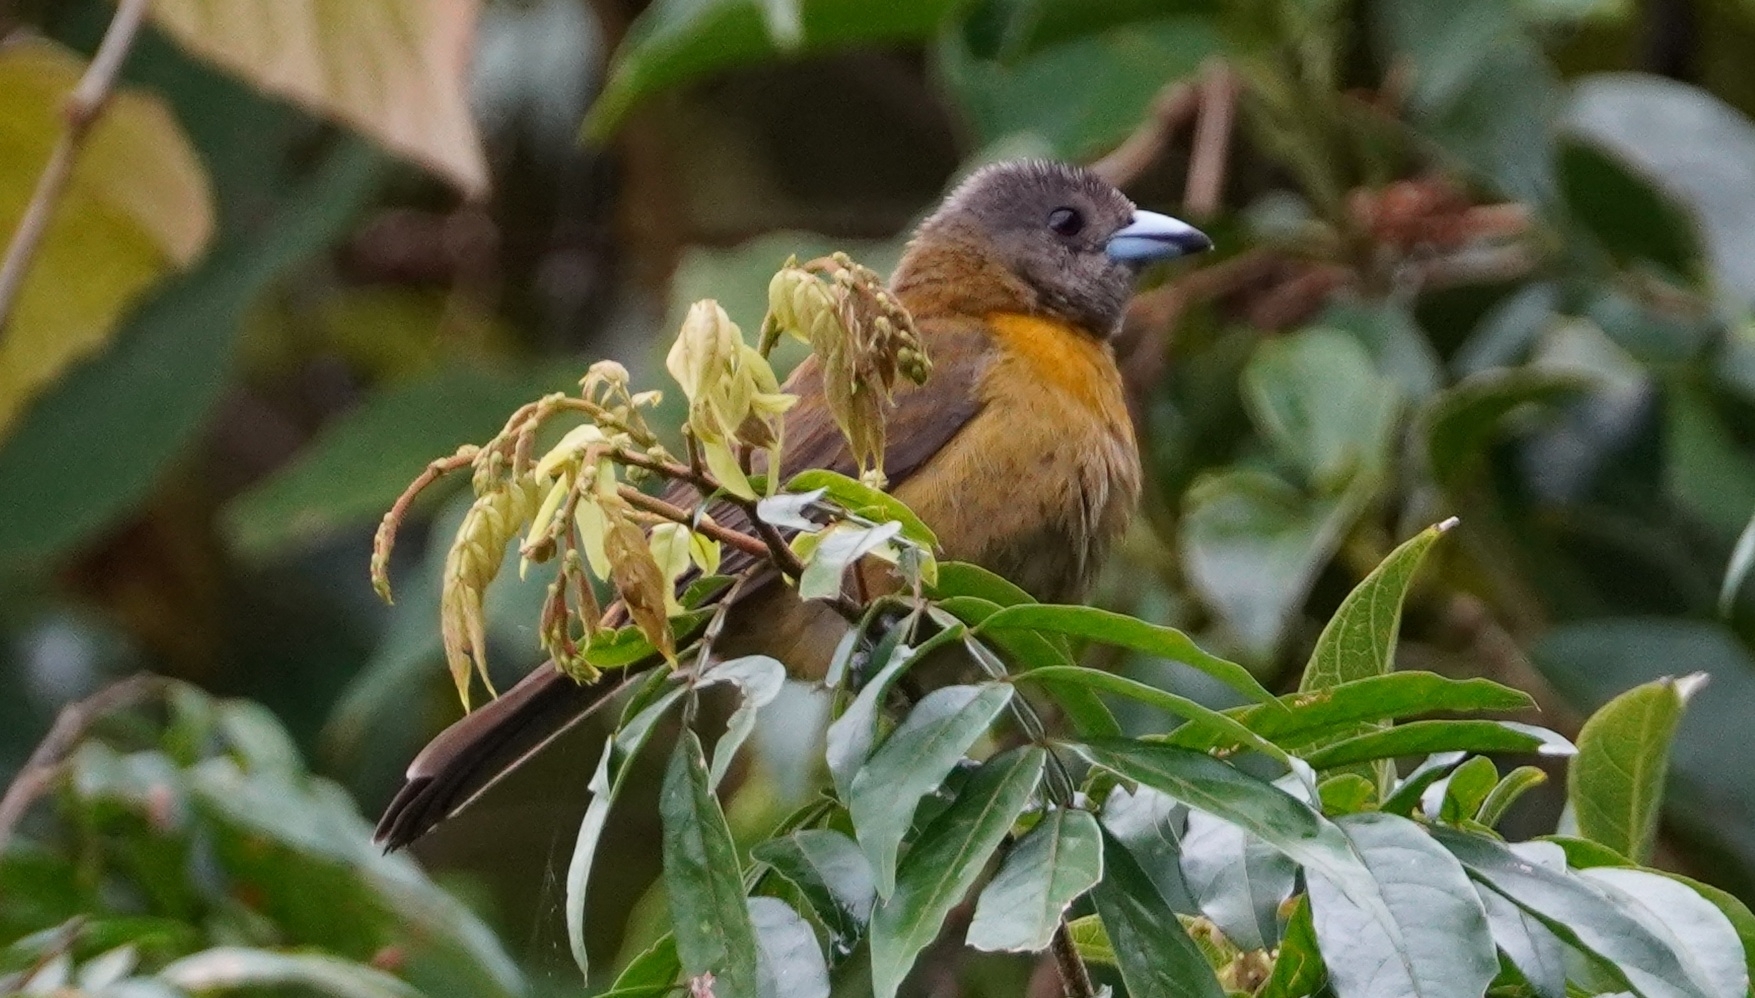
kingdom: Animalia
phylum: Chordata
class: Aves
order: Passeriformes
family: Thraupidae
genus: Ramphocelus
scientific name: Ramphocelus passerinii
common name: Passerini's tanager
